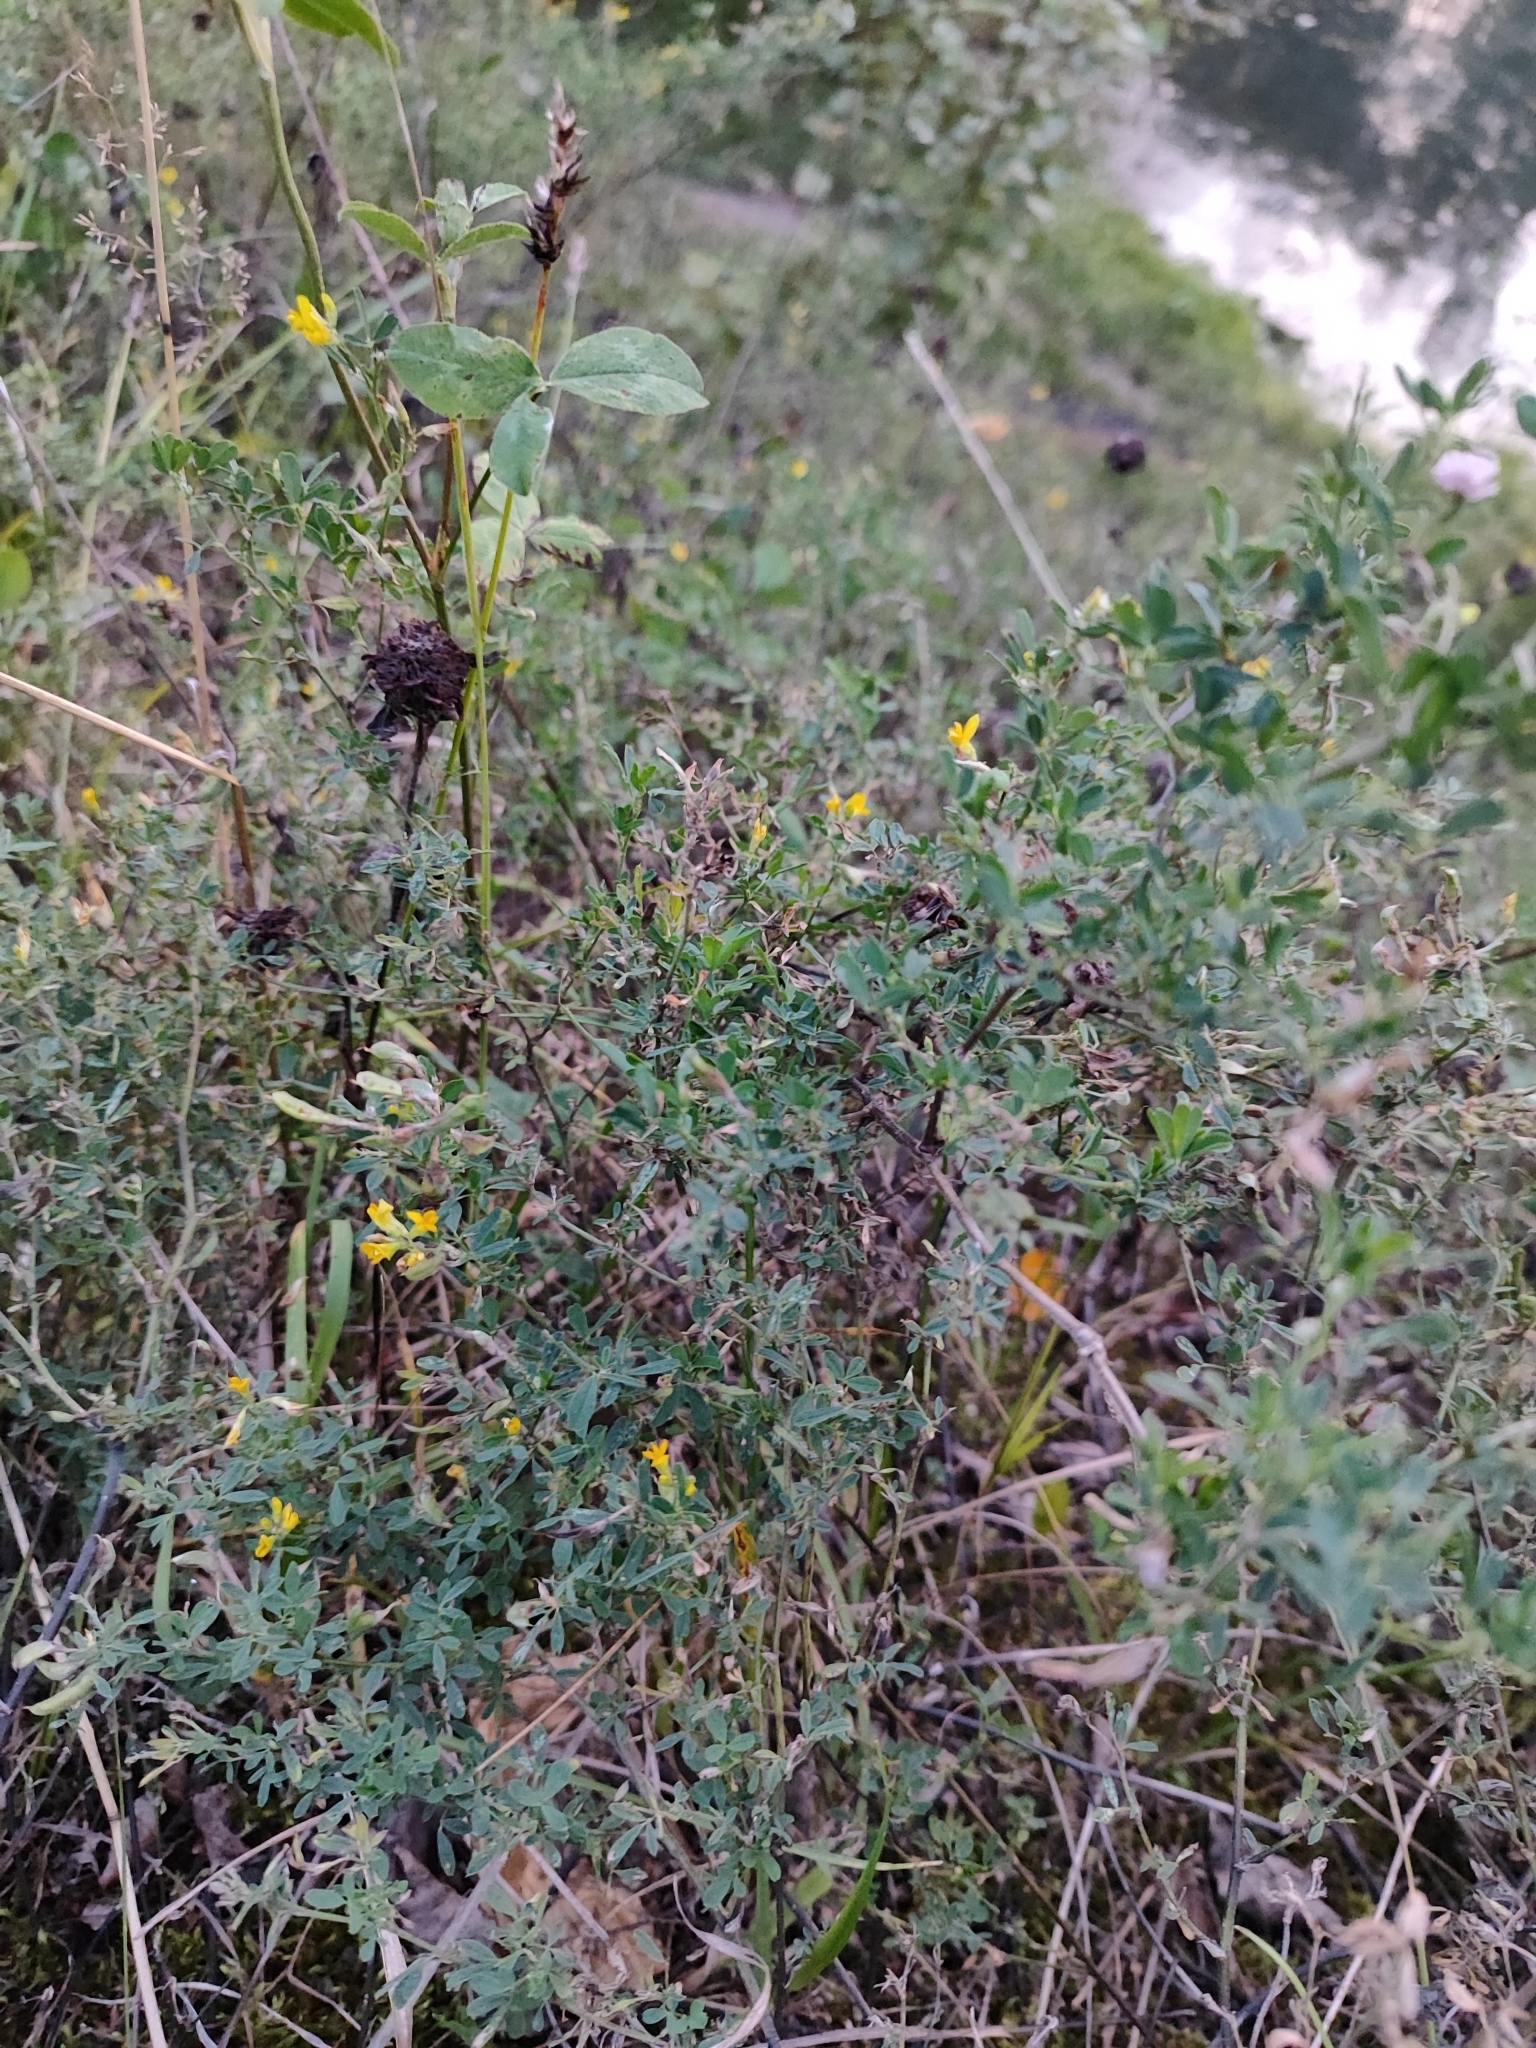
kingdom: Plantae
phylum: Tracheophyta
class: Magnoliopsida
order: Fabales
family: Fabaceae
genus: Medicago
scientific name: Medicago falcata
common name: Sickle medick
